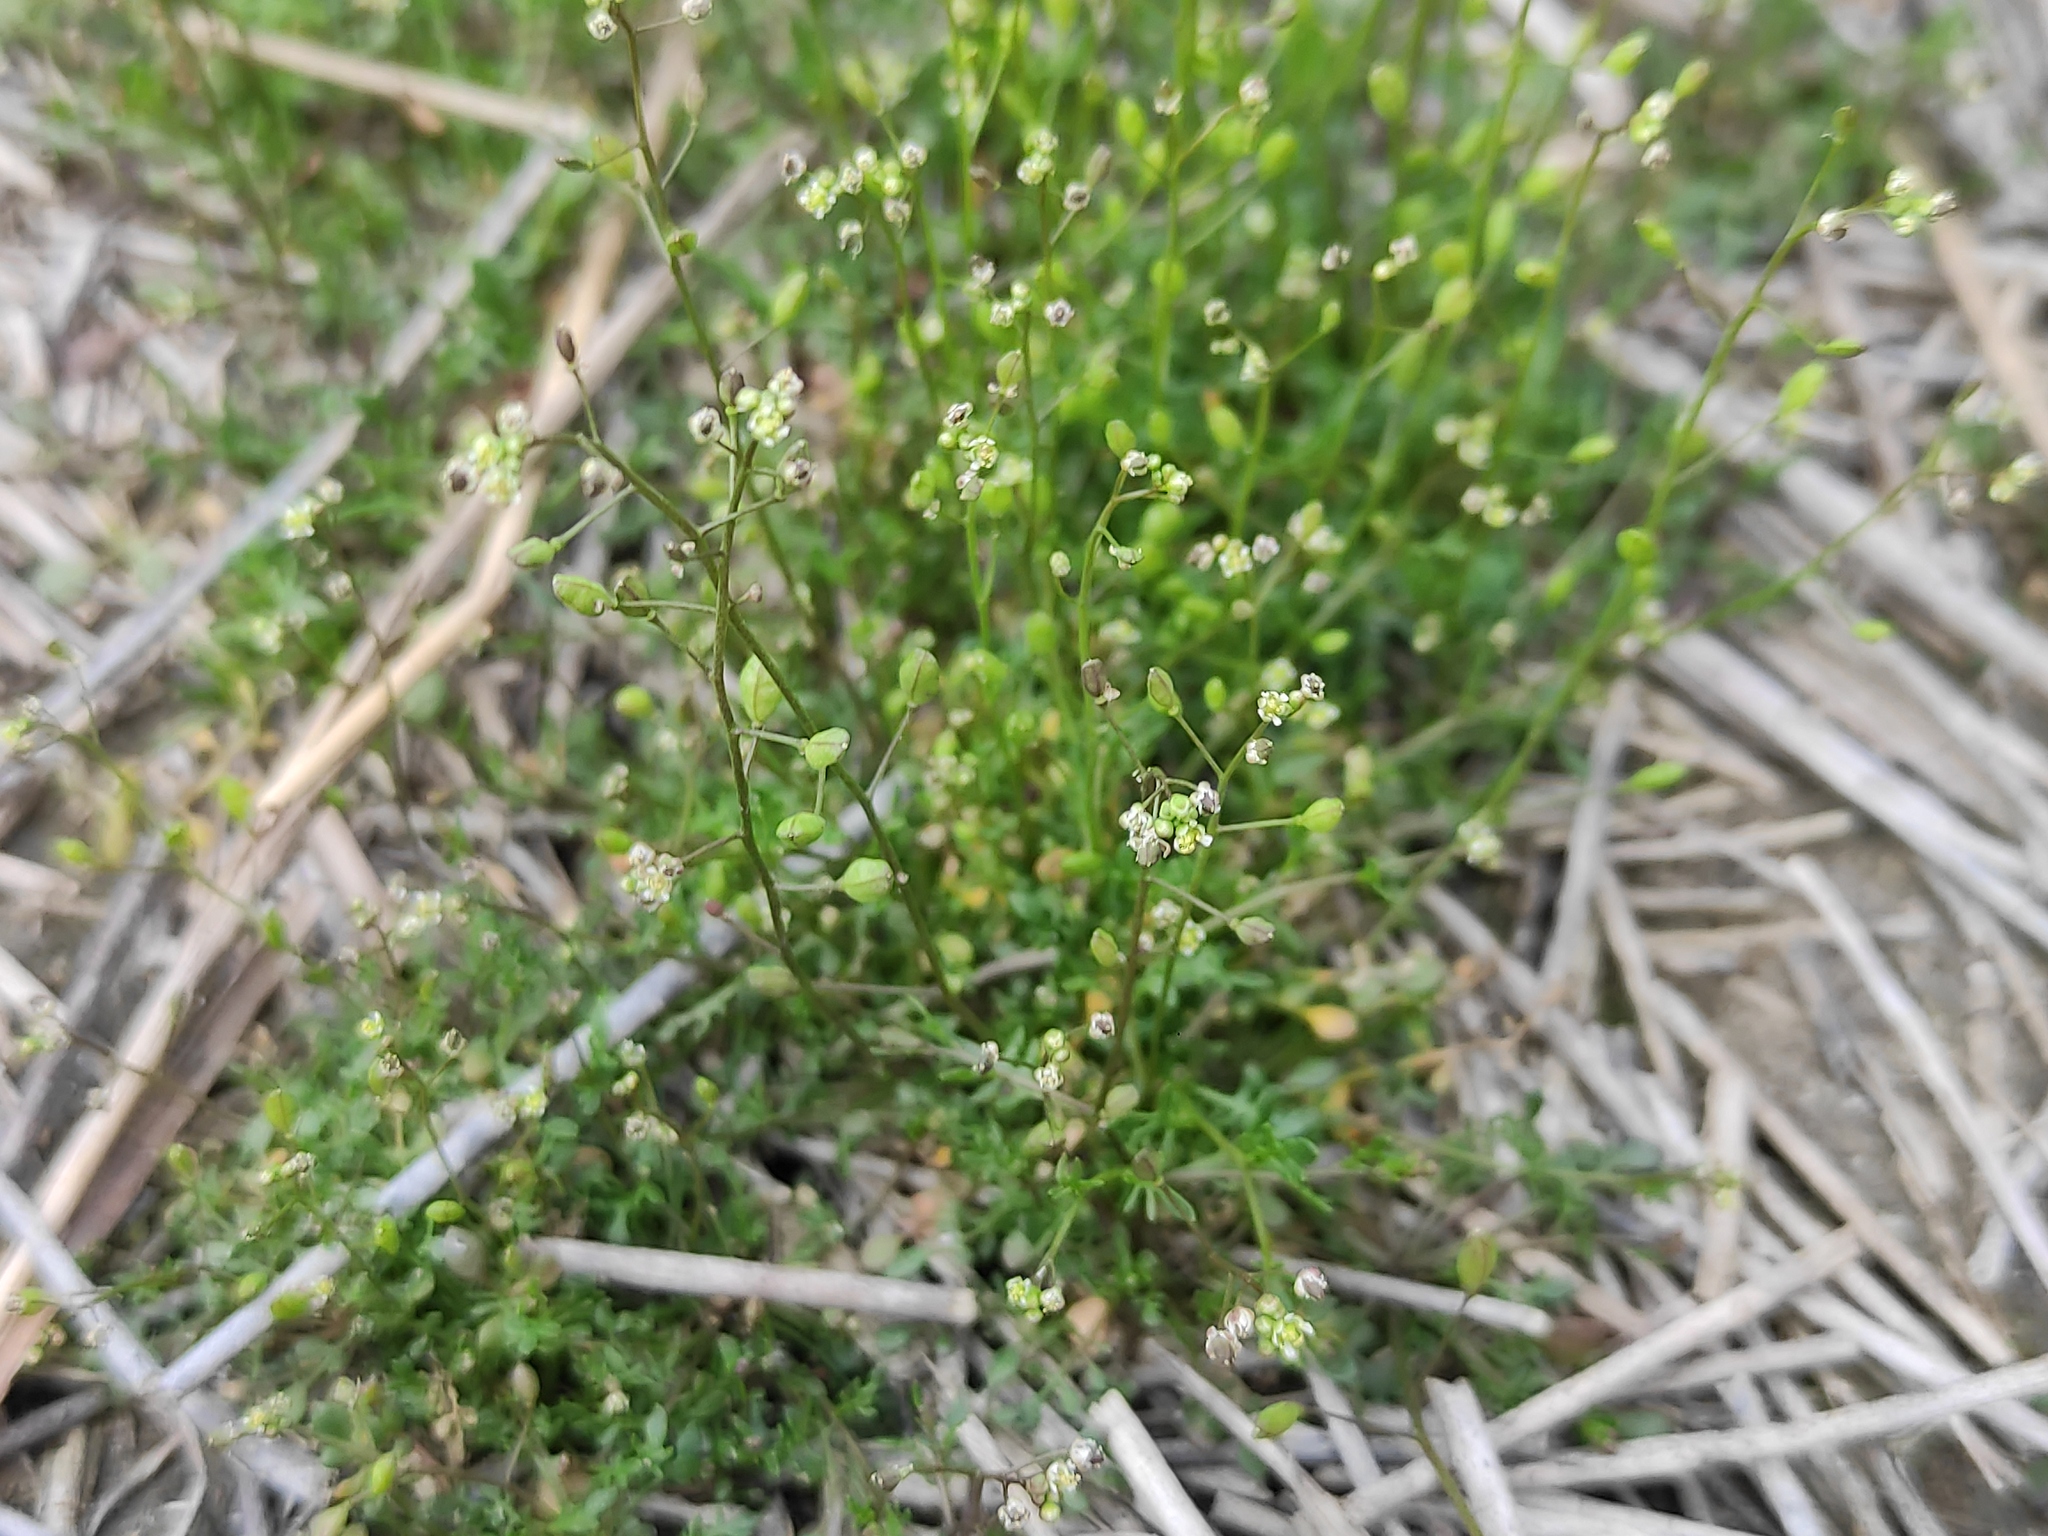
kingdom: Plantae
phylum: Tracheophyta
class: Magnoliopsida
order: Brassicales
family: Brassicaceae
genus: Hornungia
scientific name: Hornungia procumbens
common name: Oval purse
